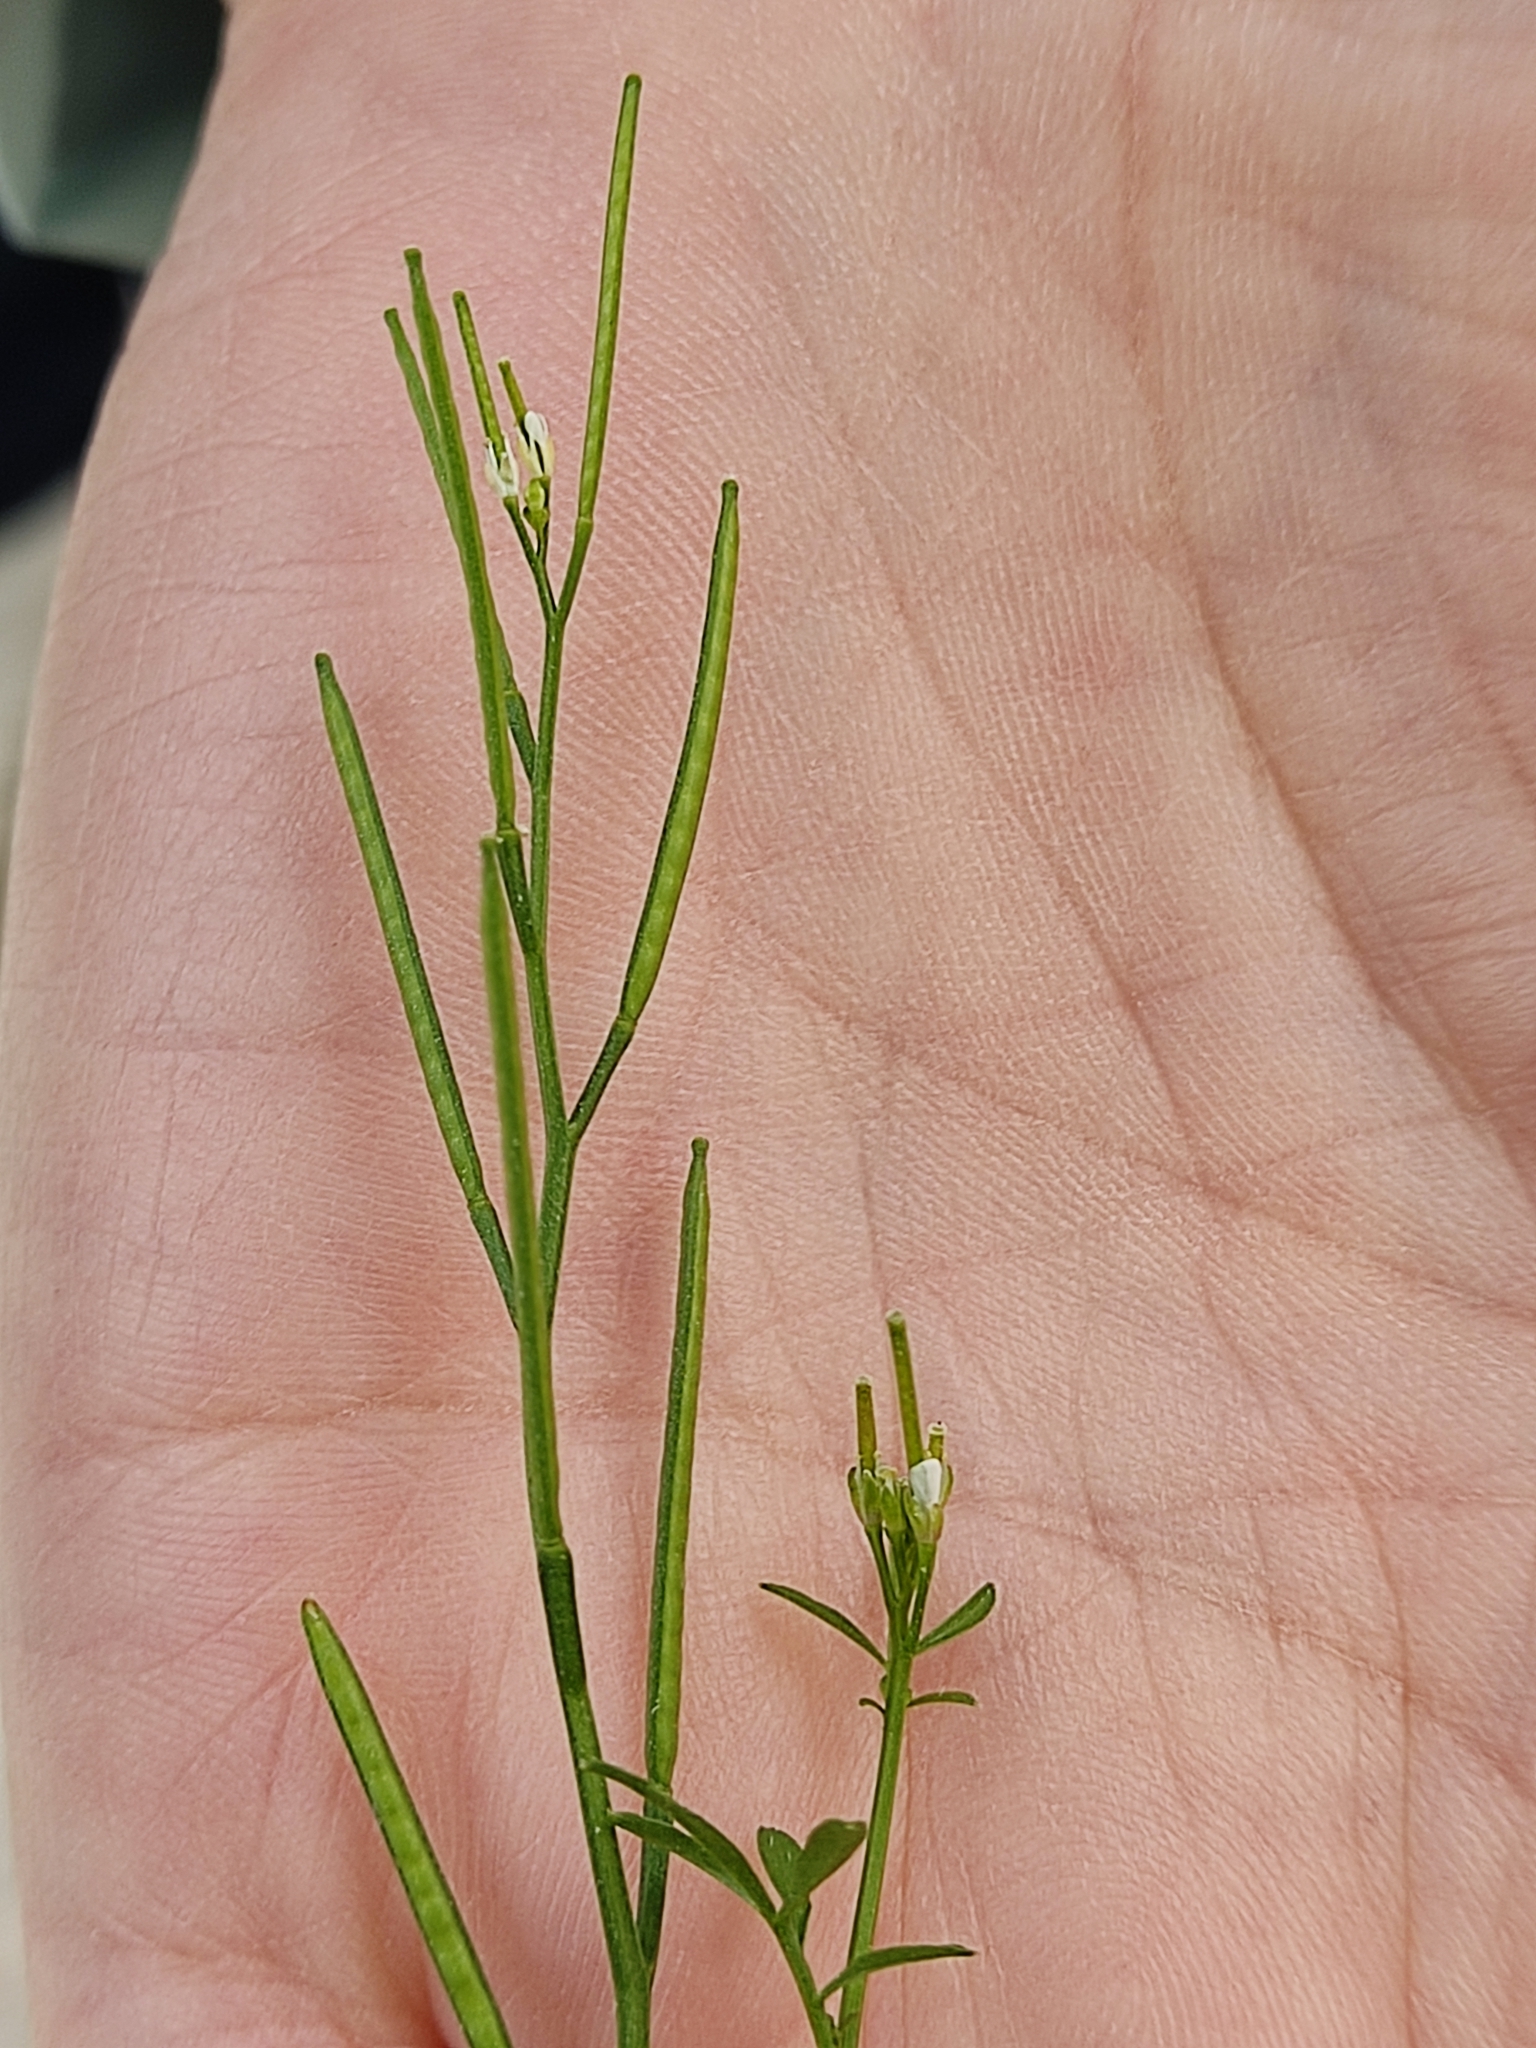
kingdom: Plantae
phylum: Tracheophyta
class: Magnoliopsida
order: Brassicales
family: Brassicaceae
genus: Cardamine
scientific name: Cardamine hirsuta
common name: Hairy bittercress
